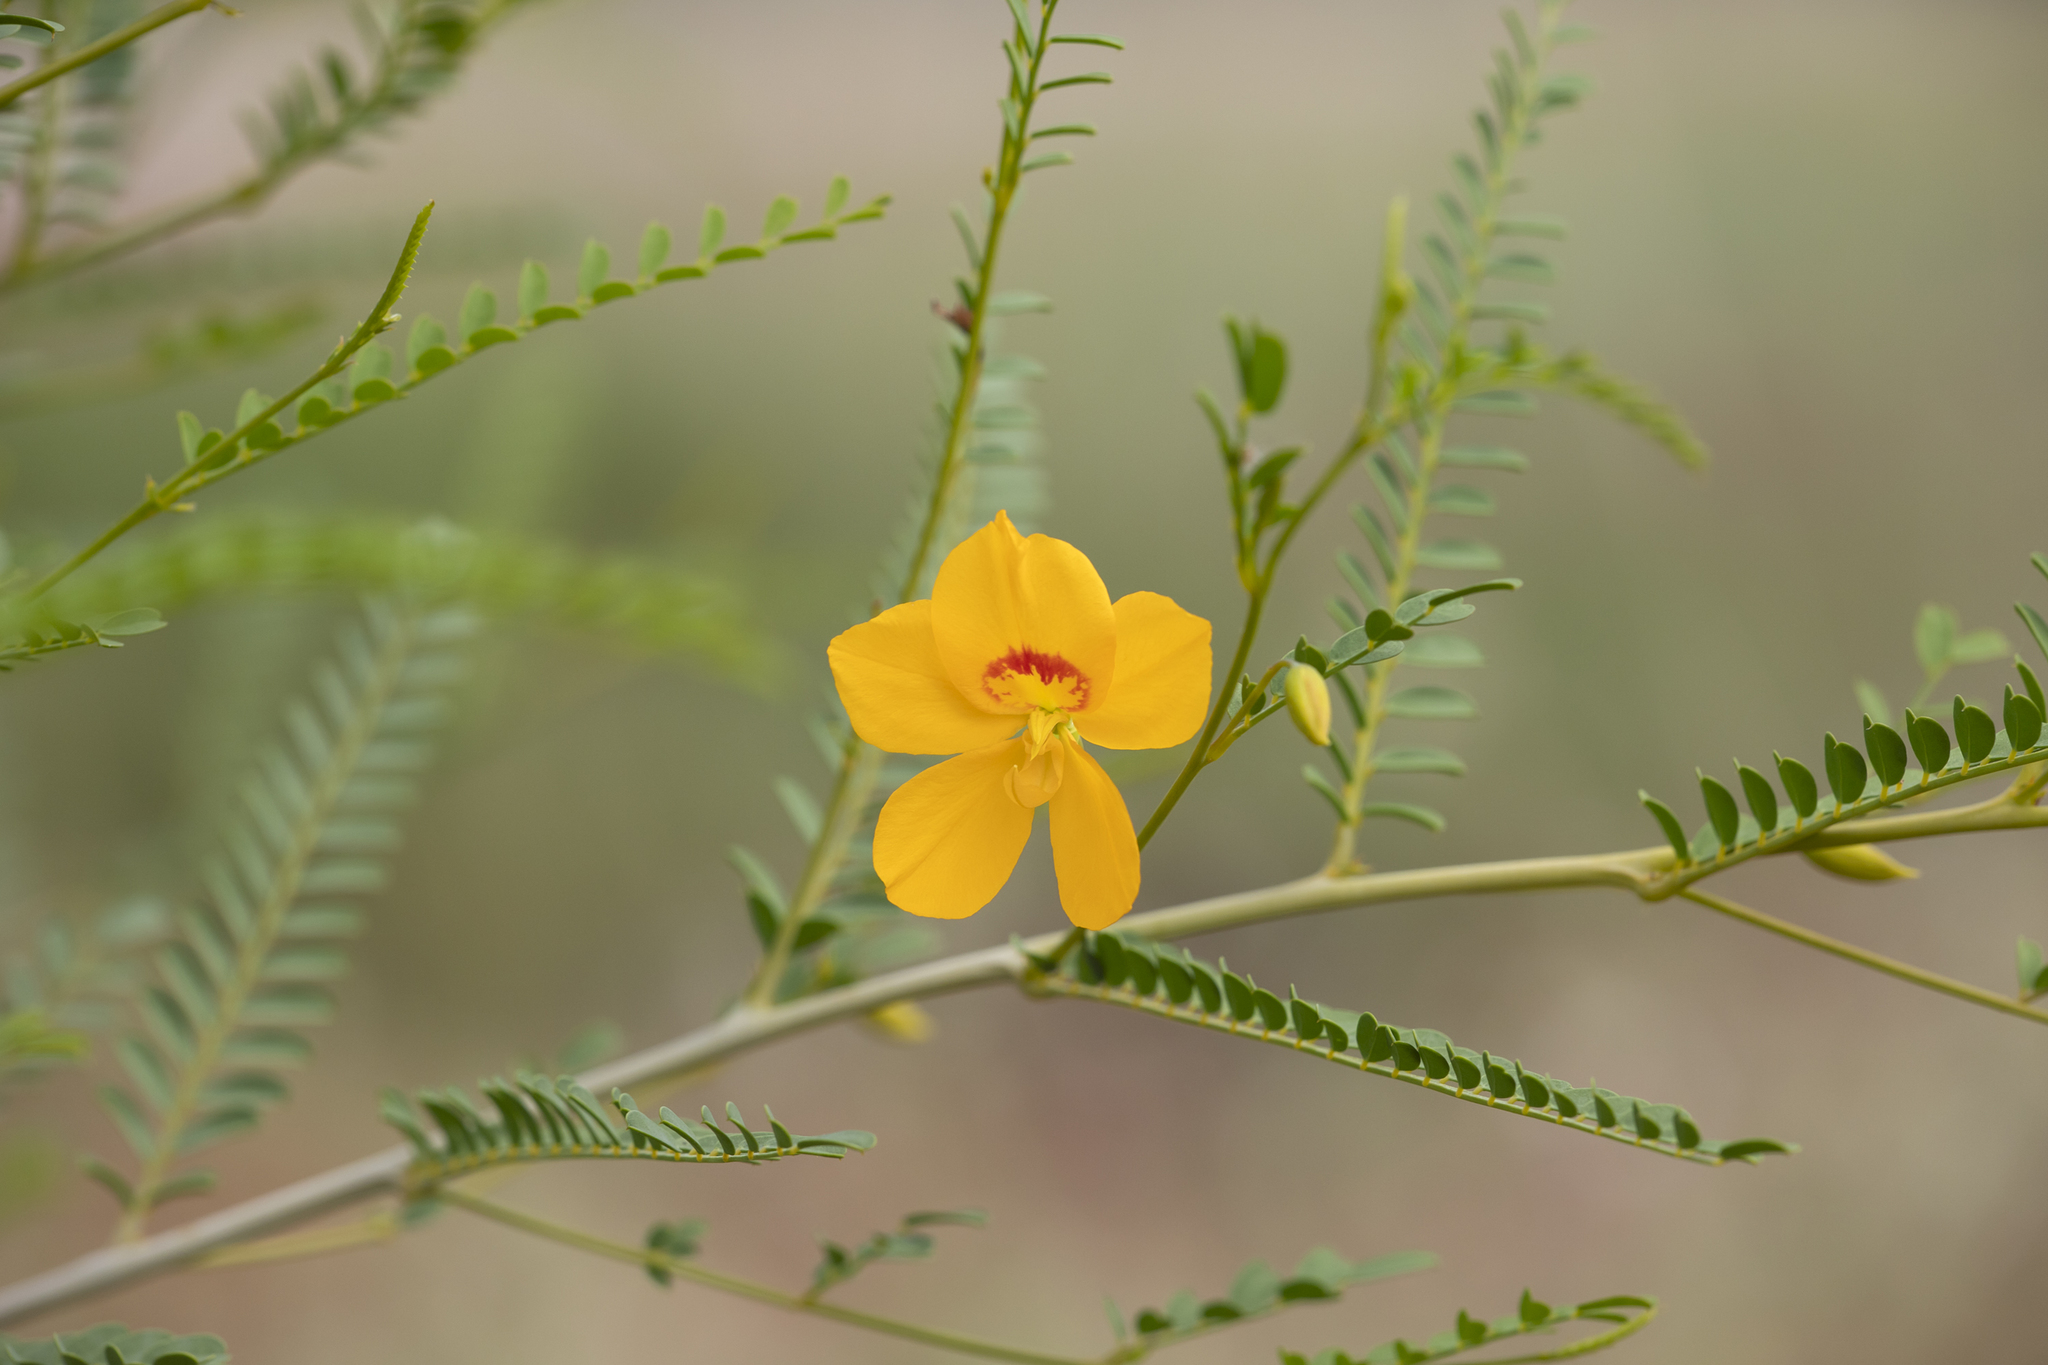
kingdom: Plantae
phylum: Tracheophyta
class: Magnoliopsida
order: Fabales
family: Fabaceae
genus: Petalostylis
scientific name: Petalostylis cassioides
